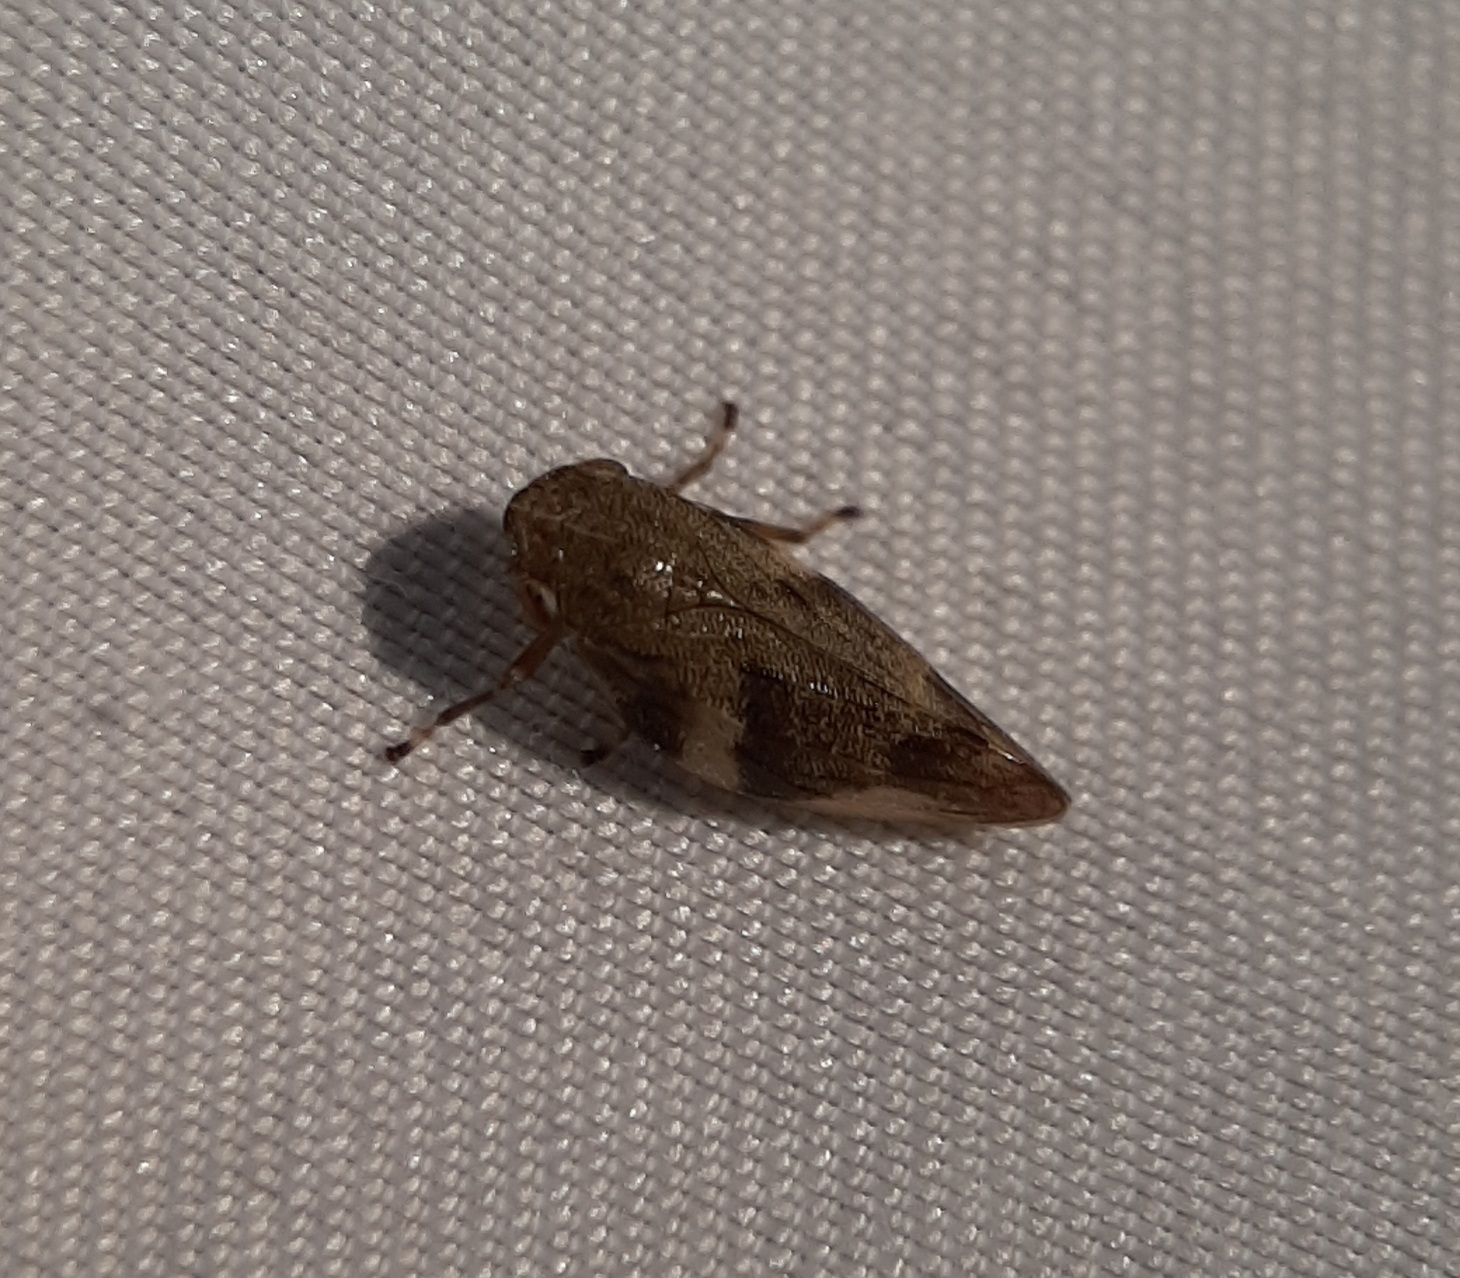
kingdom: Animalia
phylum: Arthropoda
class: Insecta
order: Hemiptera
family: Aphrophoridae
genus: Aphrophora
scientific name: Aphrophora alni
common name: European alder spittlebug
